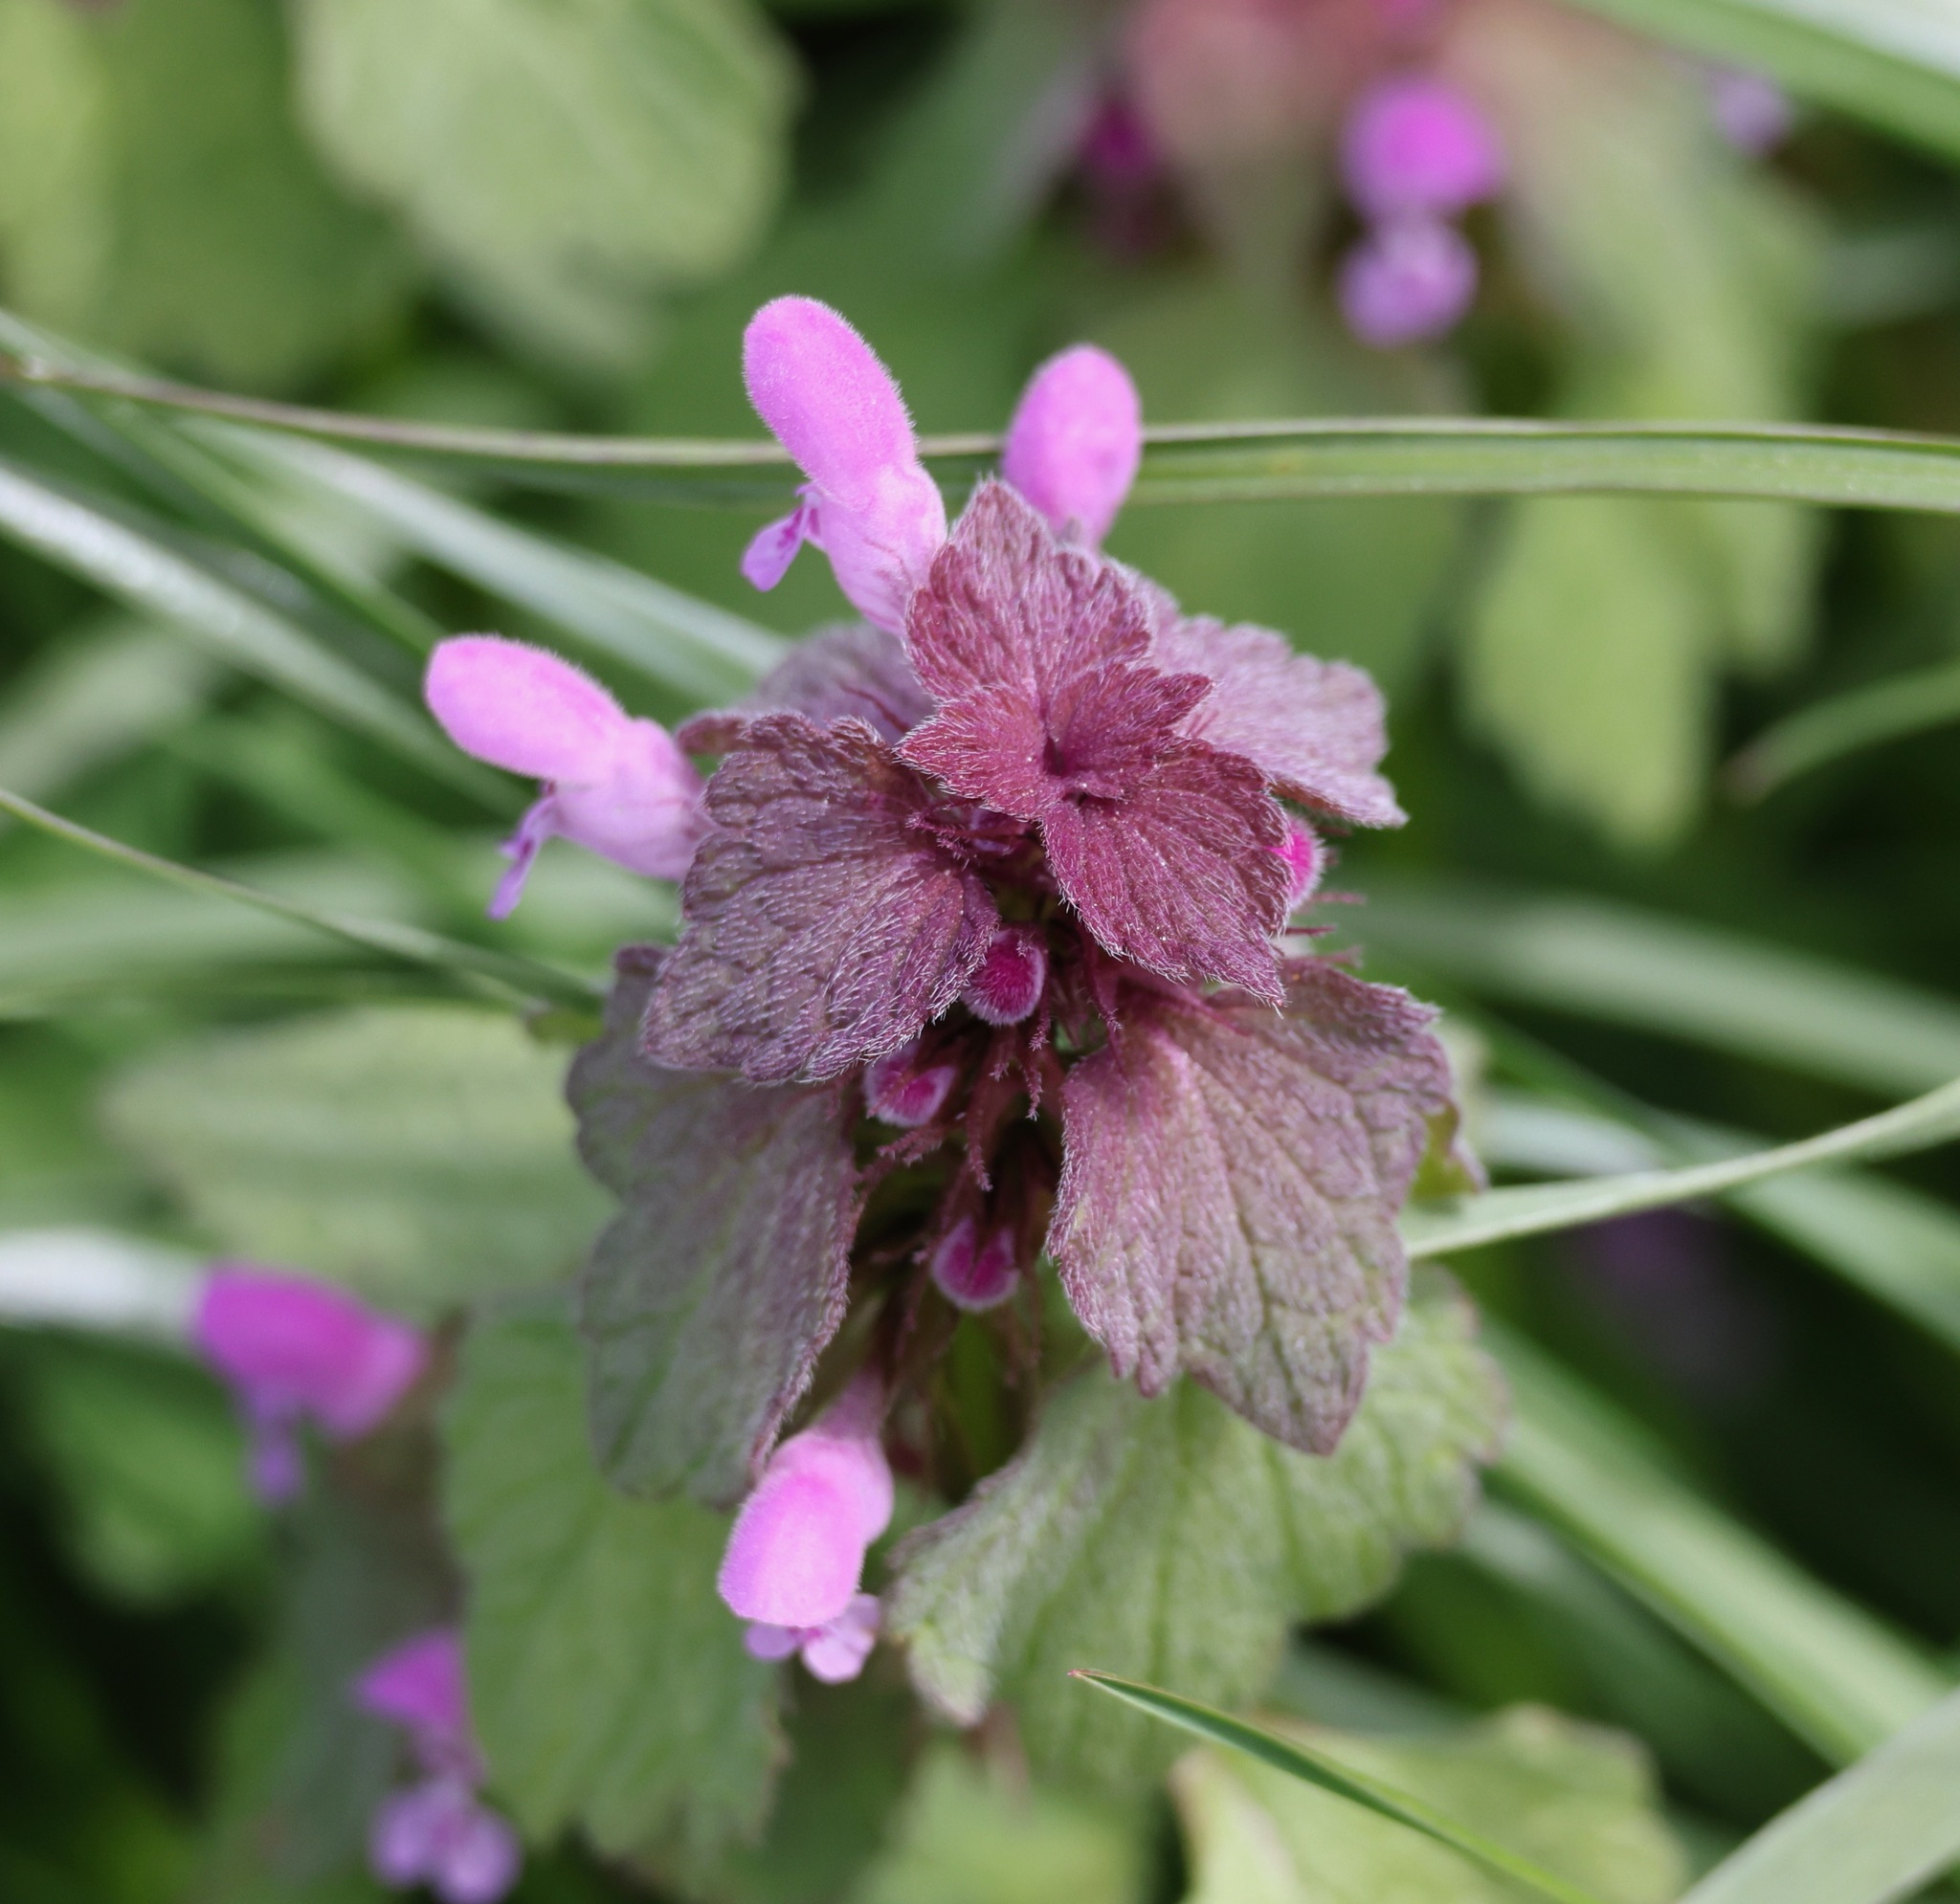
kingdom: Plantae
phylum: Tracheophyta
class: Magnoliopsida
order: Lamiales
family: Lamiaceae
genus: Lamium
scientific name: Lamium purpureum
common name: Red dead-nettle
